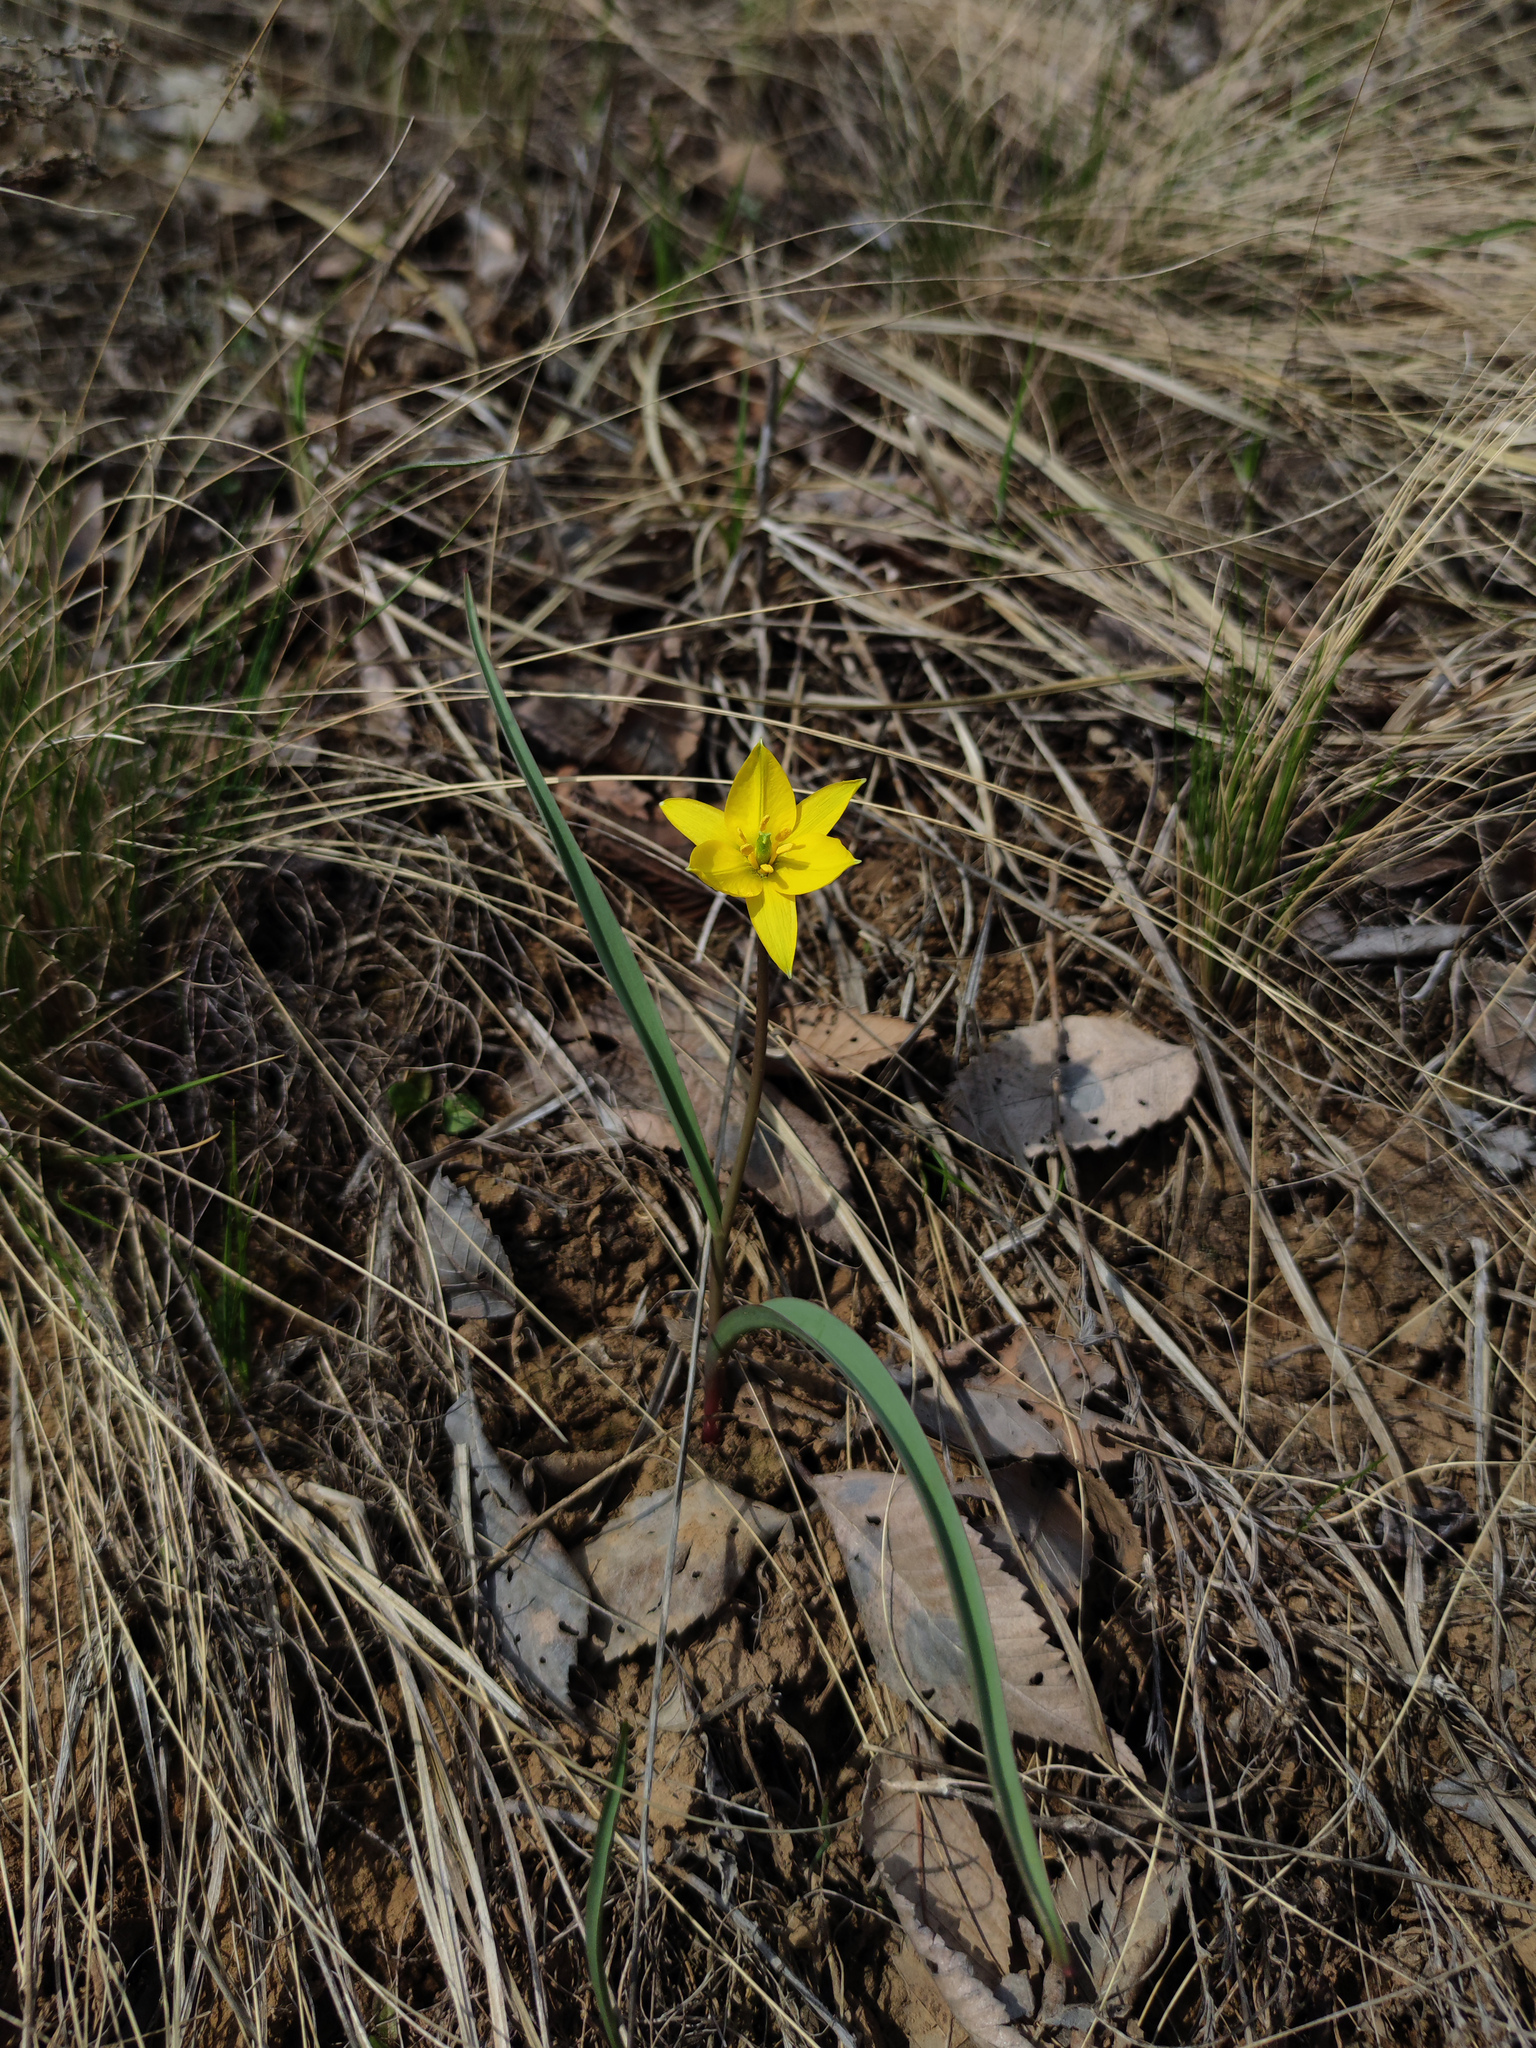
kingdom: Plantae
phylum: Tracheophyta
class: Liliopsida
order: Liliales
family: Liliaceae
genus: Tulipa
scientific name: Tulipa sylvestris
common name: Wild tulip
